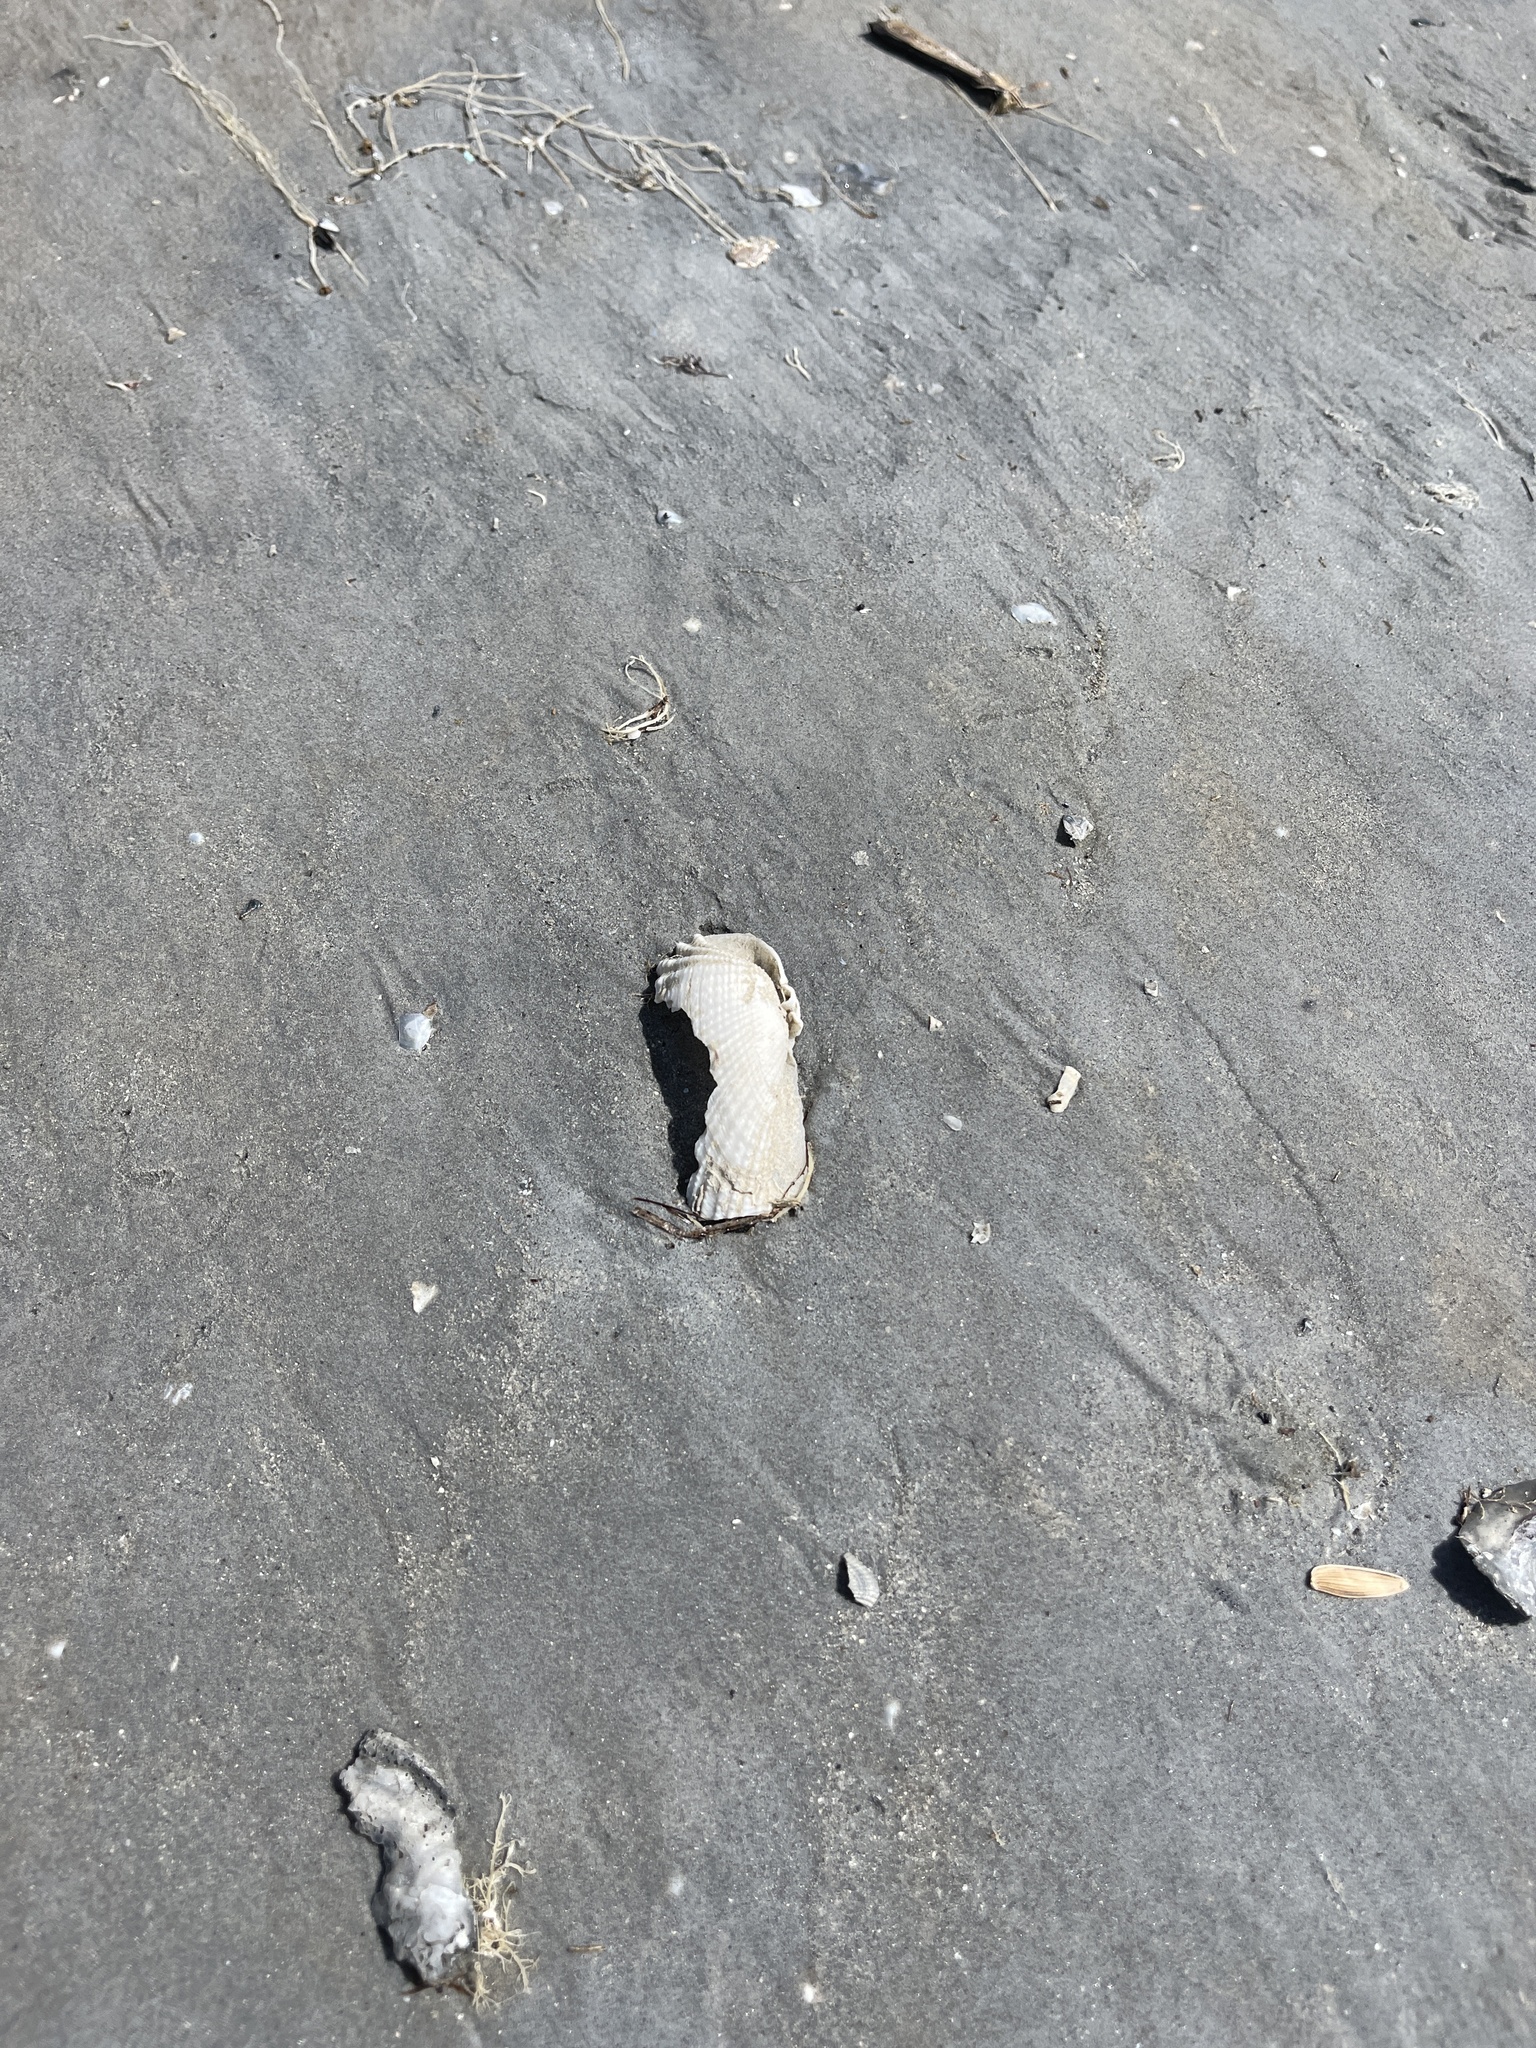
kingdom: Animalia
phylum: Mollusca
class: Bivalvia
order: Myida
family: Pholadidae
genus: Cyrtopleura
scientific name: Cyrtopleura costata
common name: Angel wing
